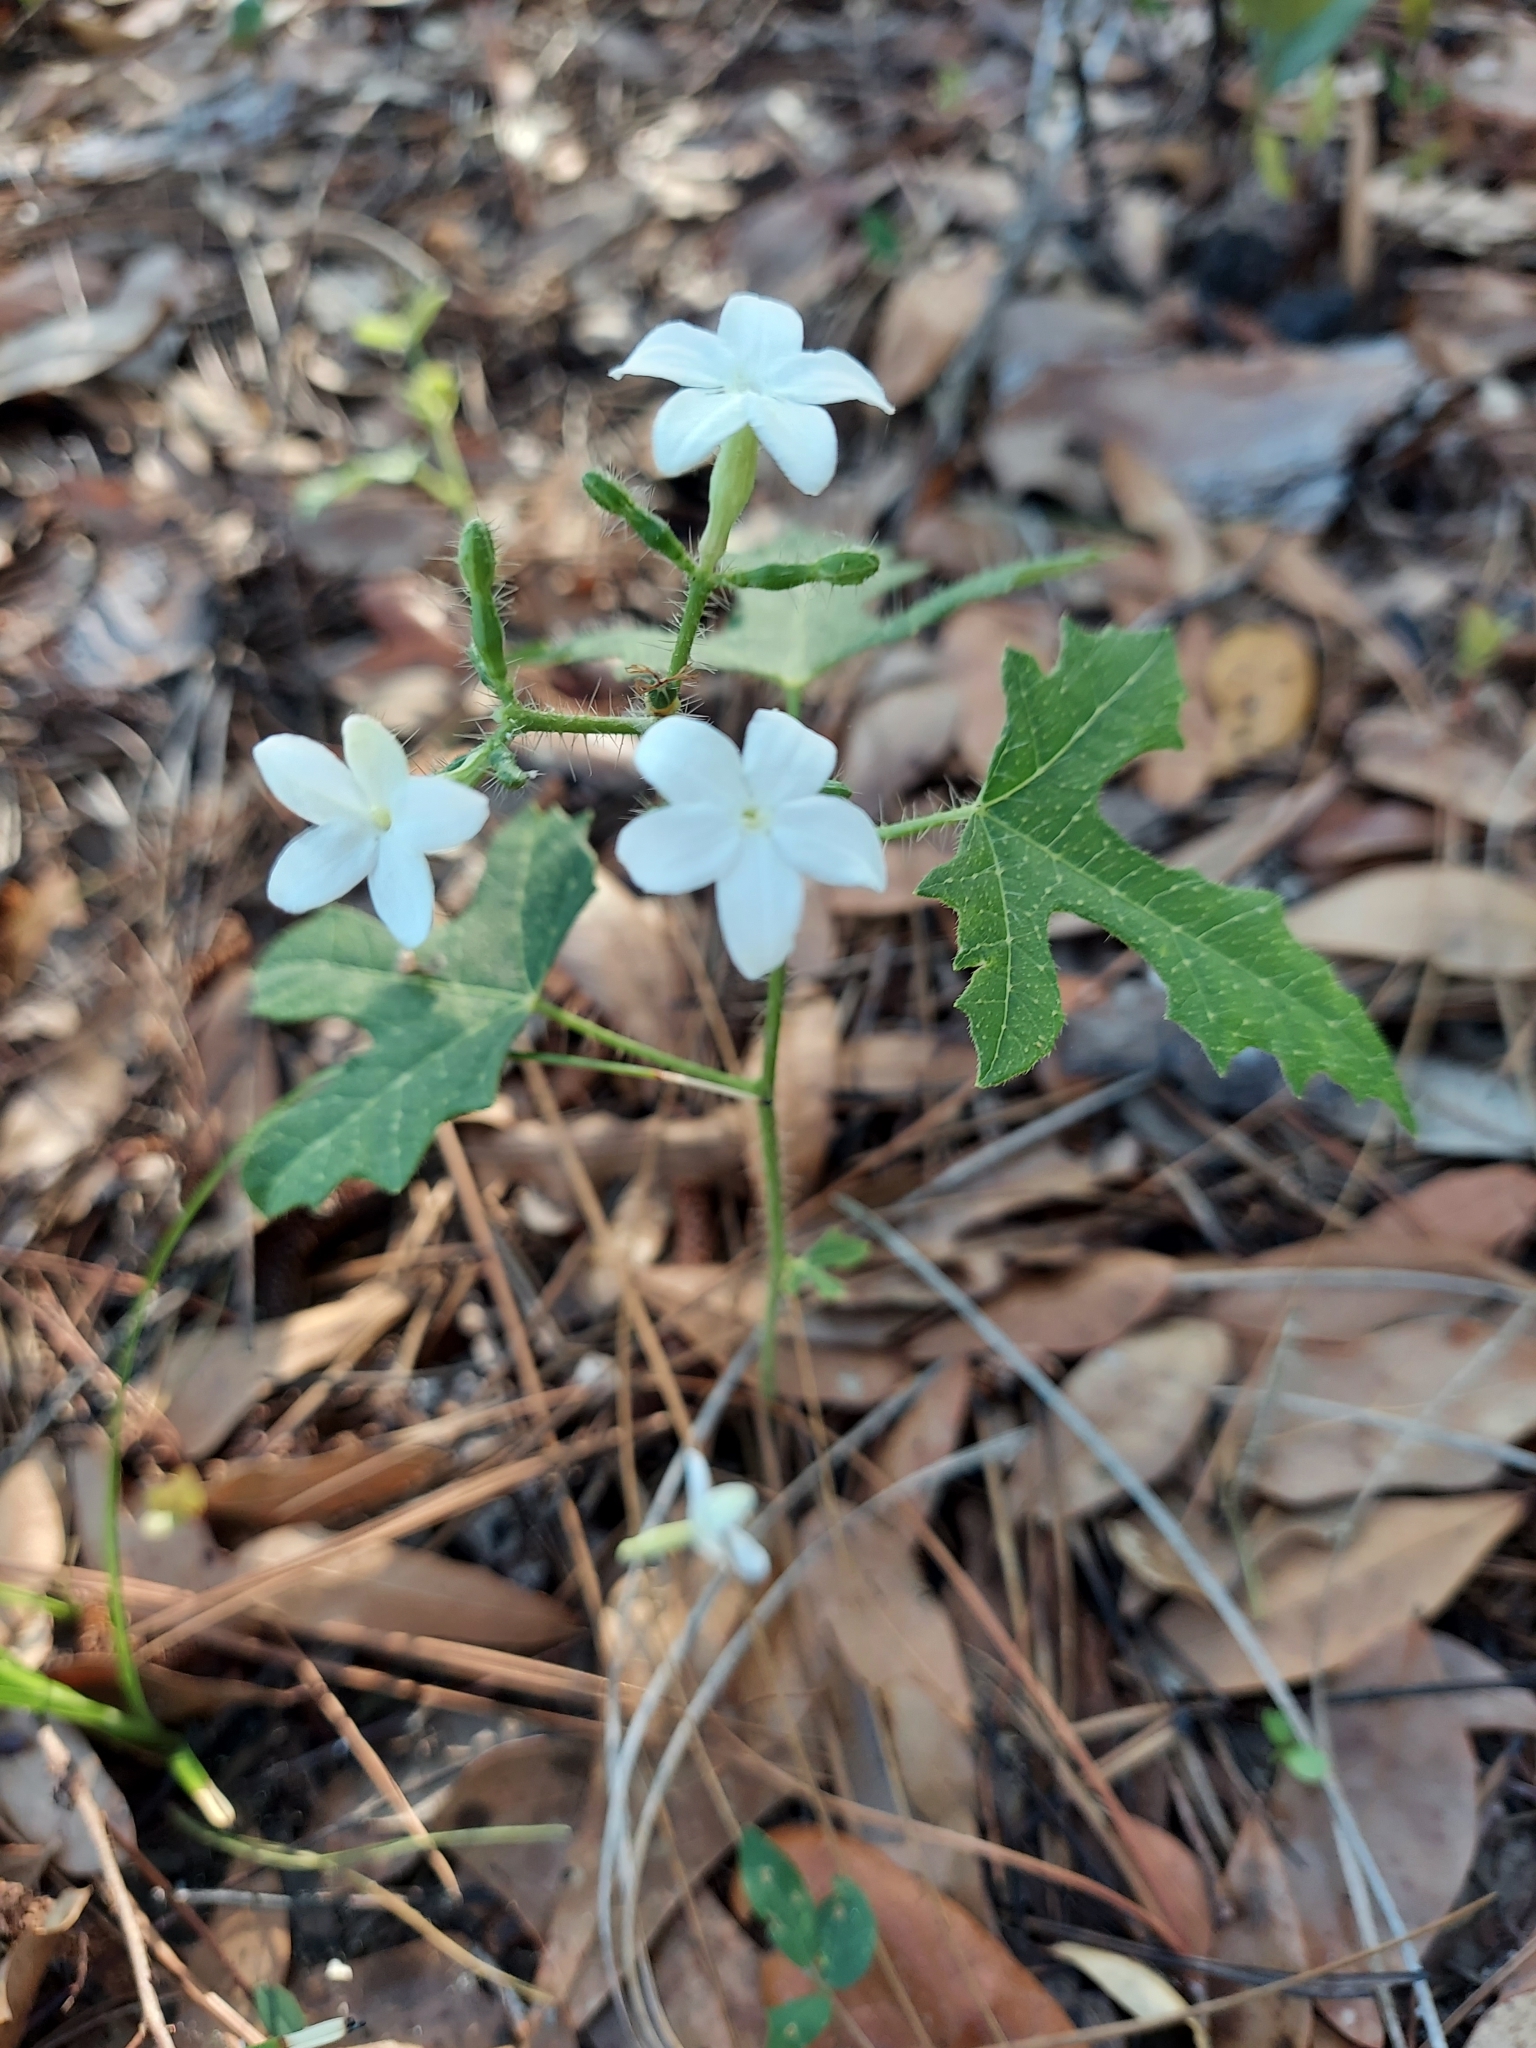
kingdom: Plantae
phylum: Tracheophyta
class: Magnoliopsida
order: Malpighiales
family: Euphorbiaceae
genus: Cnidoscolus
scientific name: Cnidoscolus stimulosus
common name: Bull-nettle
